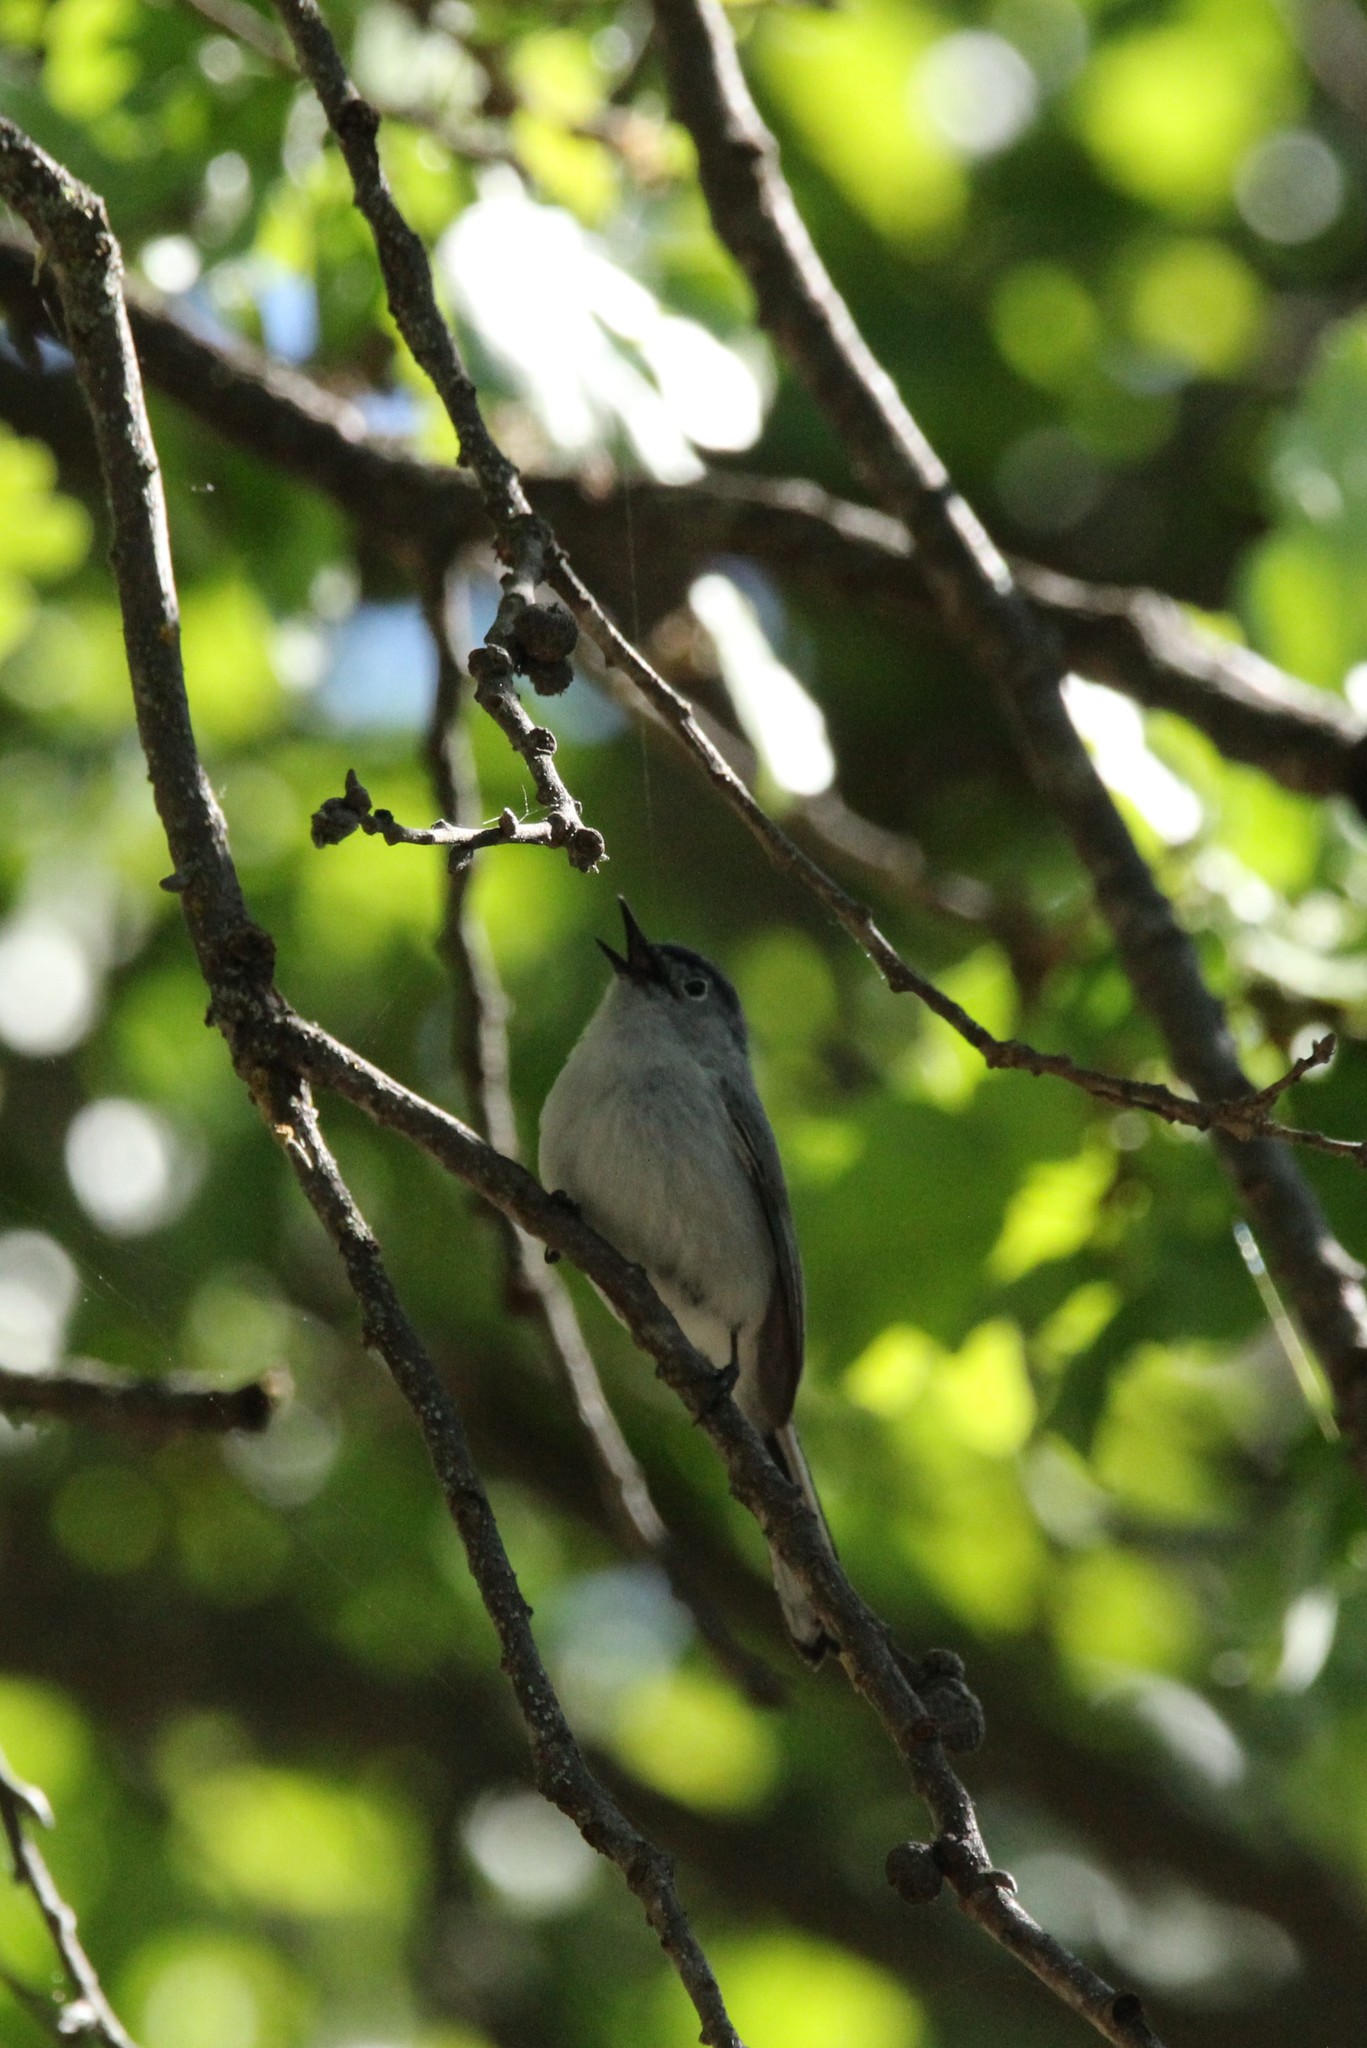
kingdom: Animalia
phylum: Chordata
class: Aves
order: Passeriformes
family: Polioptilidae
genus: Polioptila
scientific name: Polioptila caerulea
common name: Blue-gray gnatcatcher
